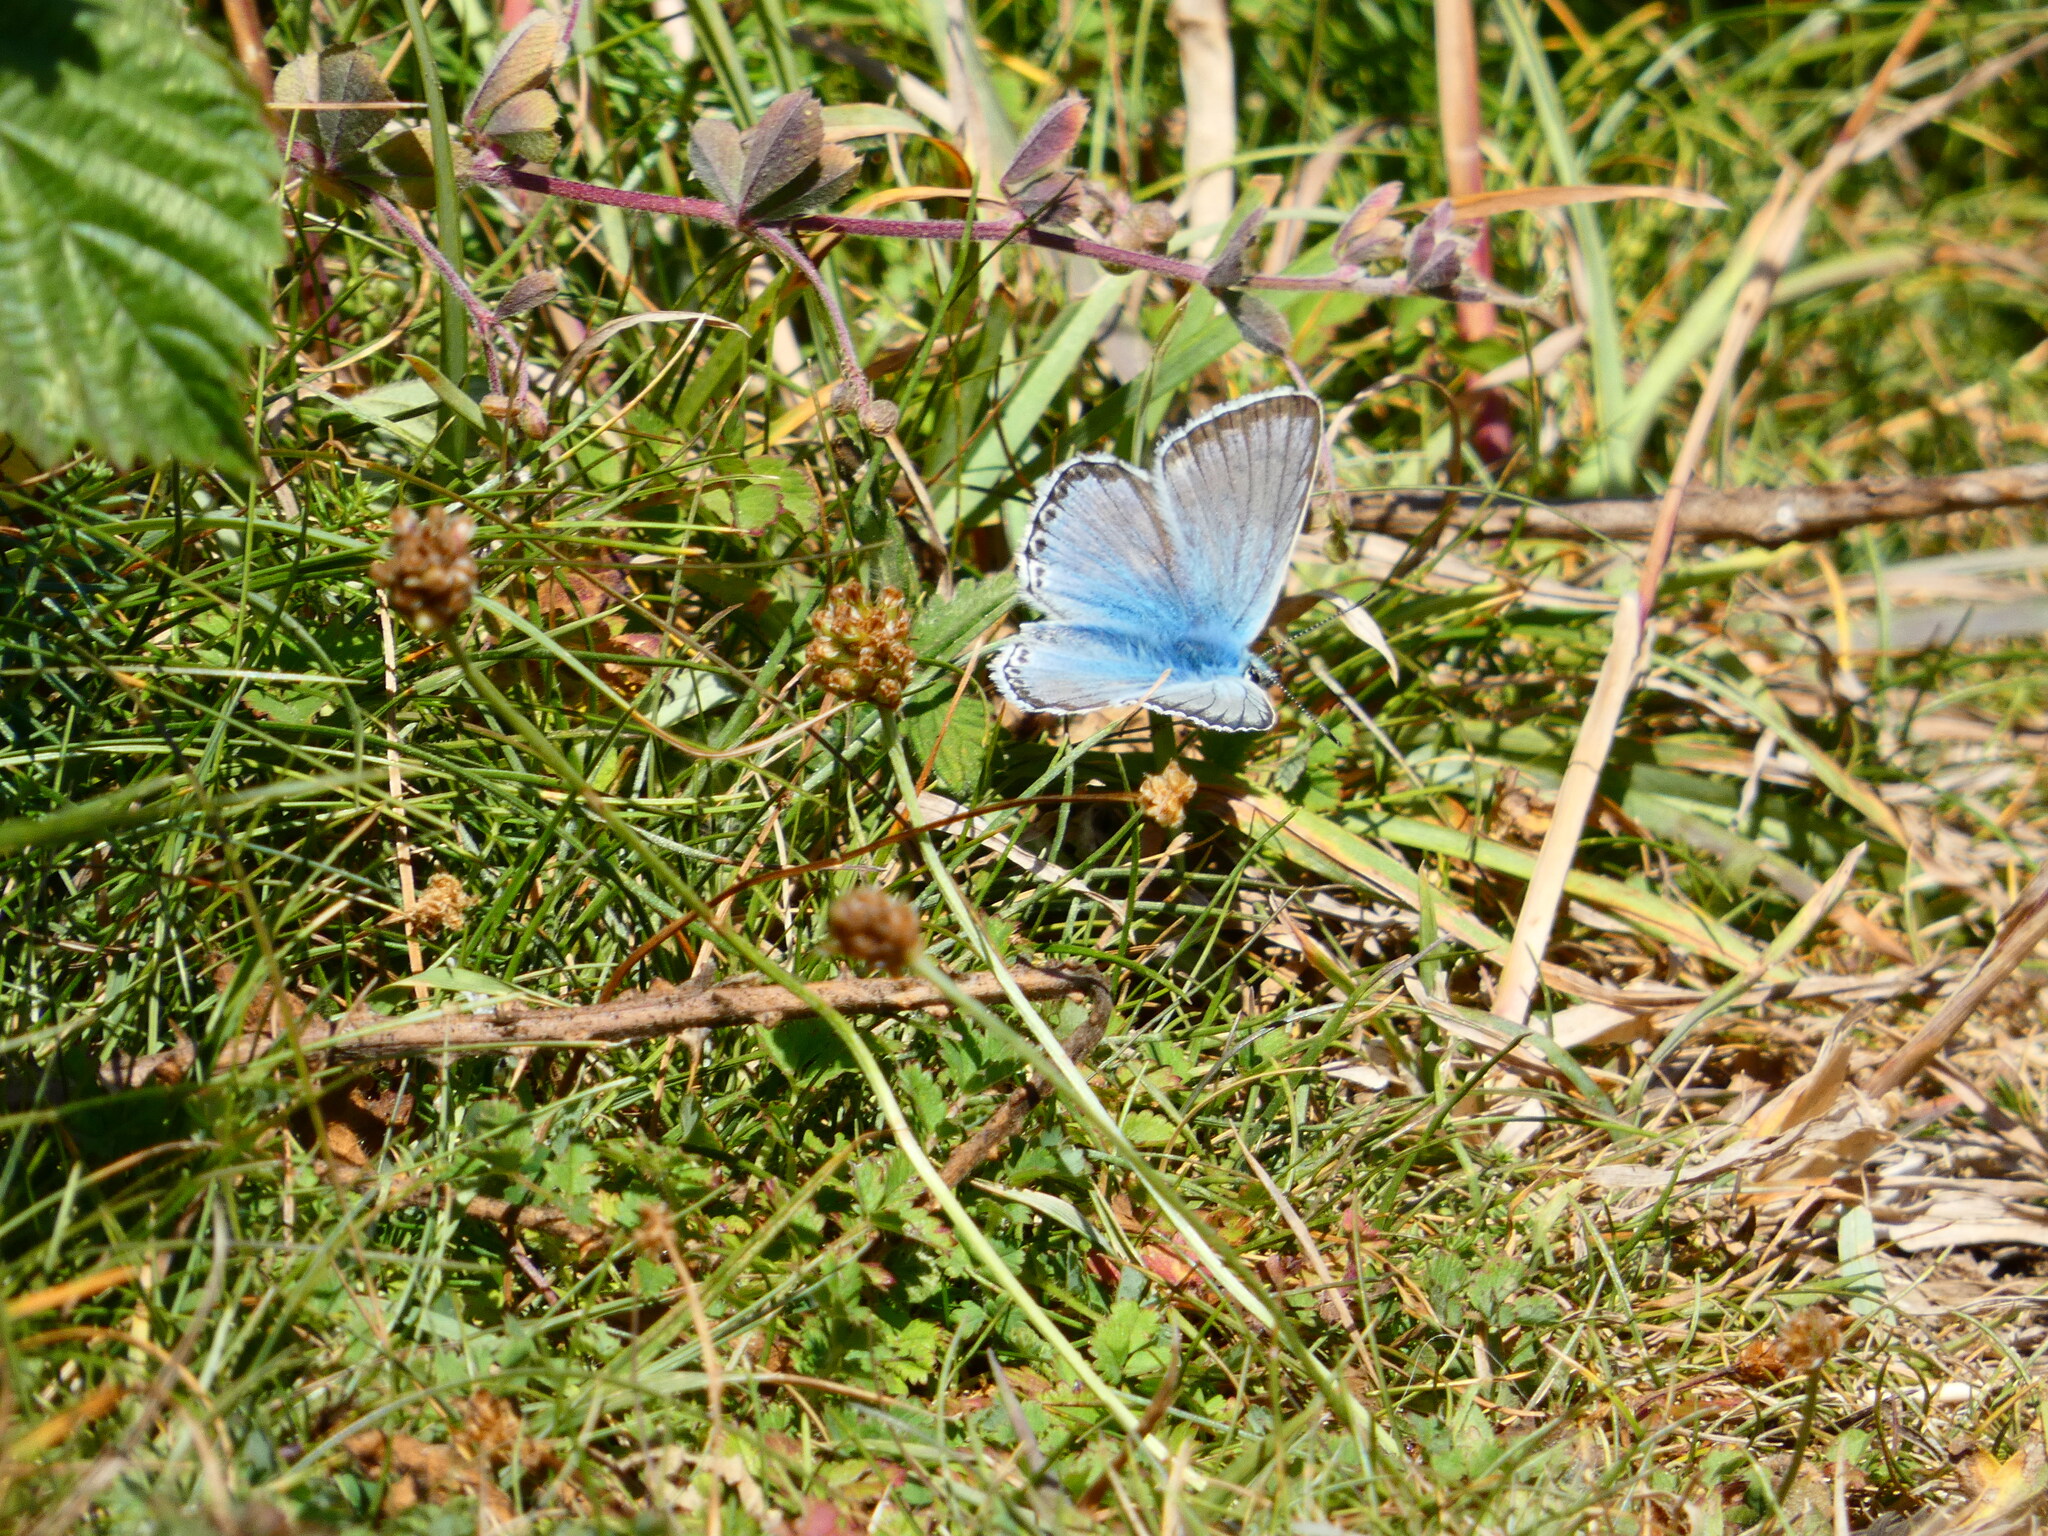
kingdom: Animalia
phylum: Arthropoda
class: Insecta
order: Lepidoptera
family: Lycaenidae
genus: Lysandra
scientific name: Lysandra coridon
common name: Chalkhill blue
